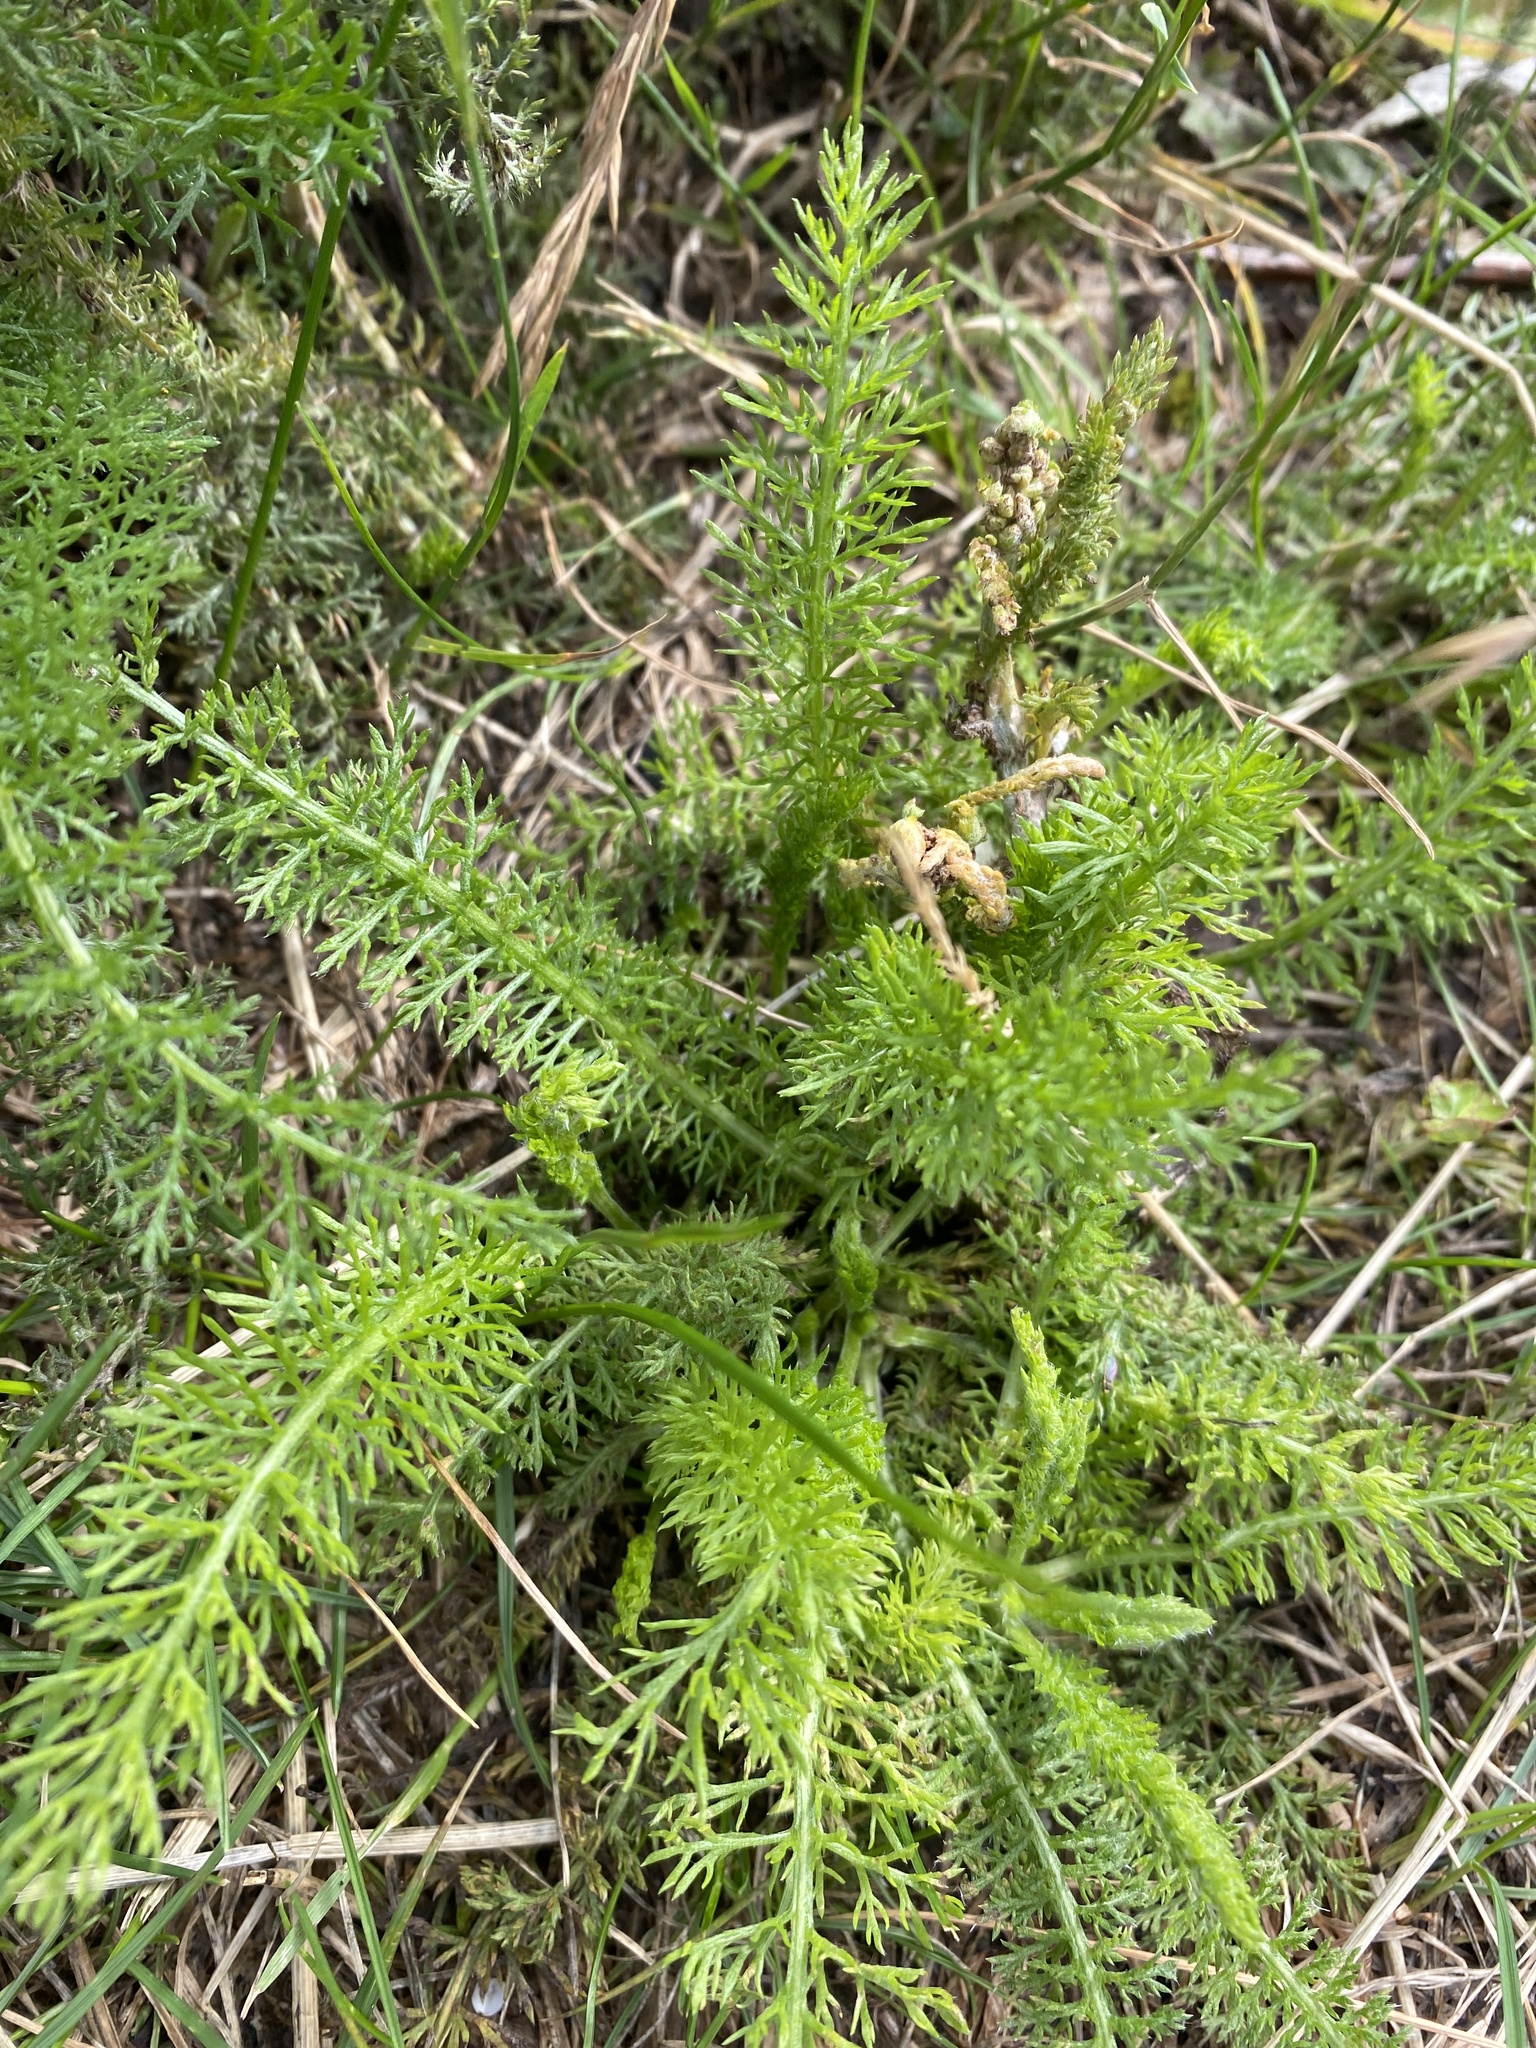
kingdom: Plantae
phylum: Tracheophyta
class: Magnoliopsida
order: Asterales
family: Asteraceae
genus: Achillea
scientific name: Achillea millefolium
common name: Yarrow
